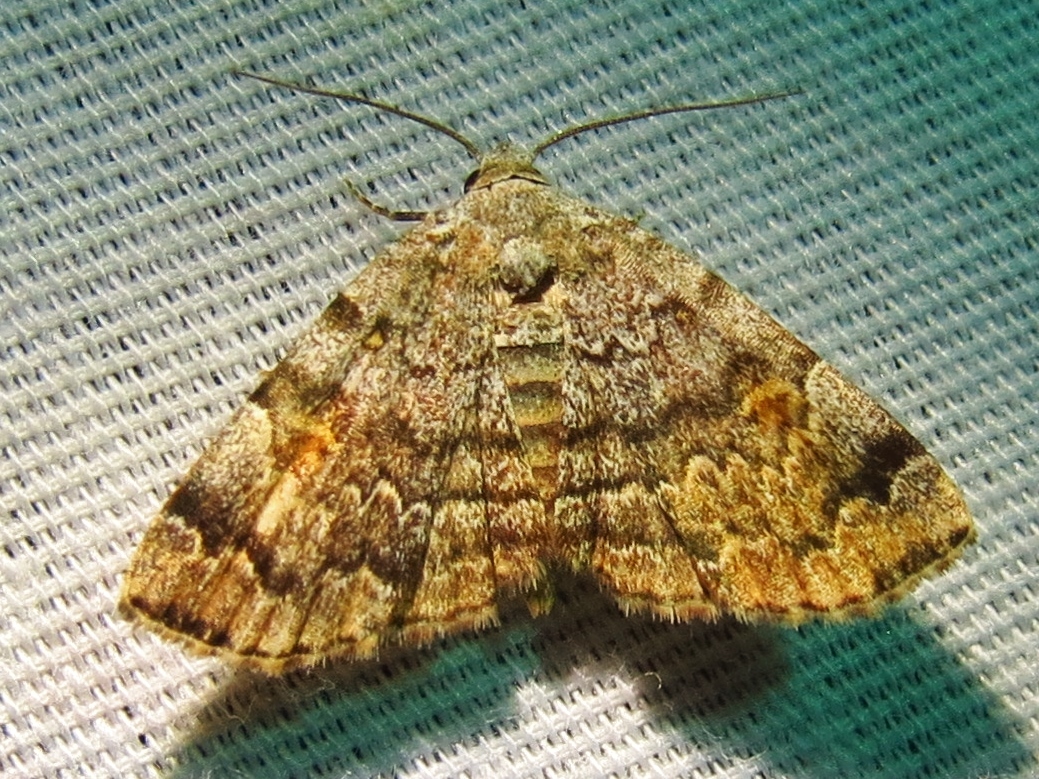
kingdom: Animalia
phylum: Arthropoda
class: Insecta
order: Lepidoptera
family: Erebidae
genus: Idia
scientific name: Idia americalis
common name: American idia moth
